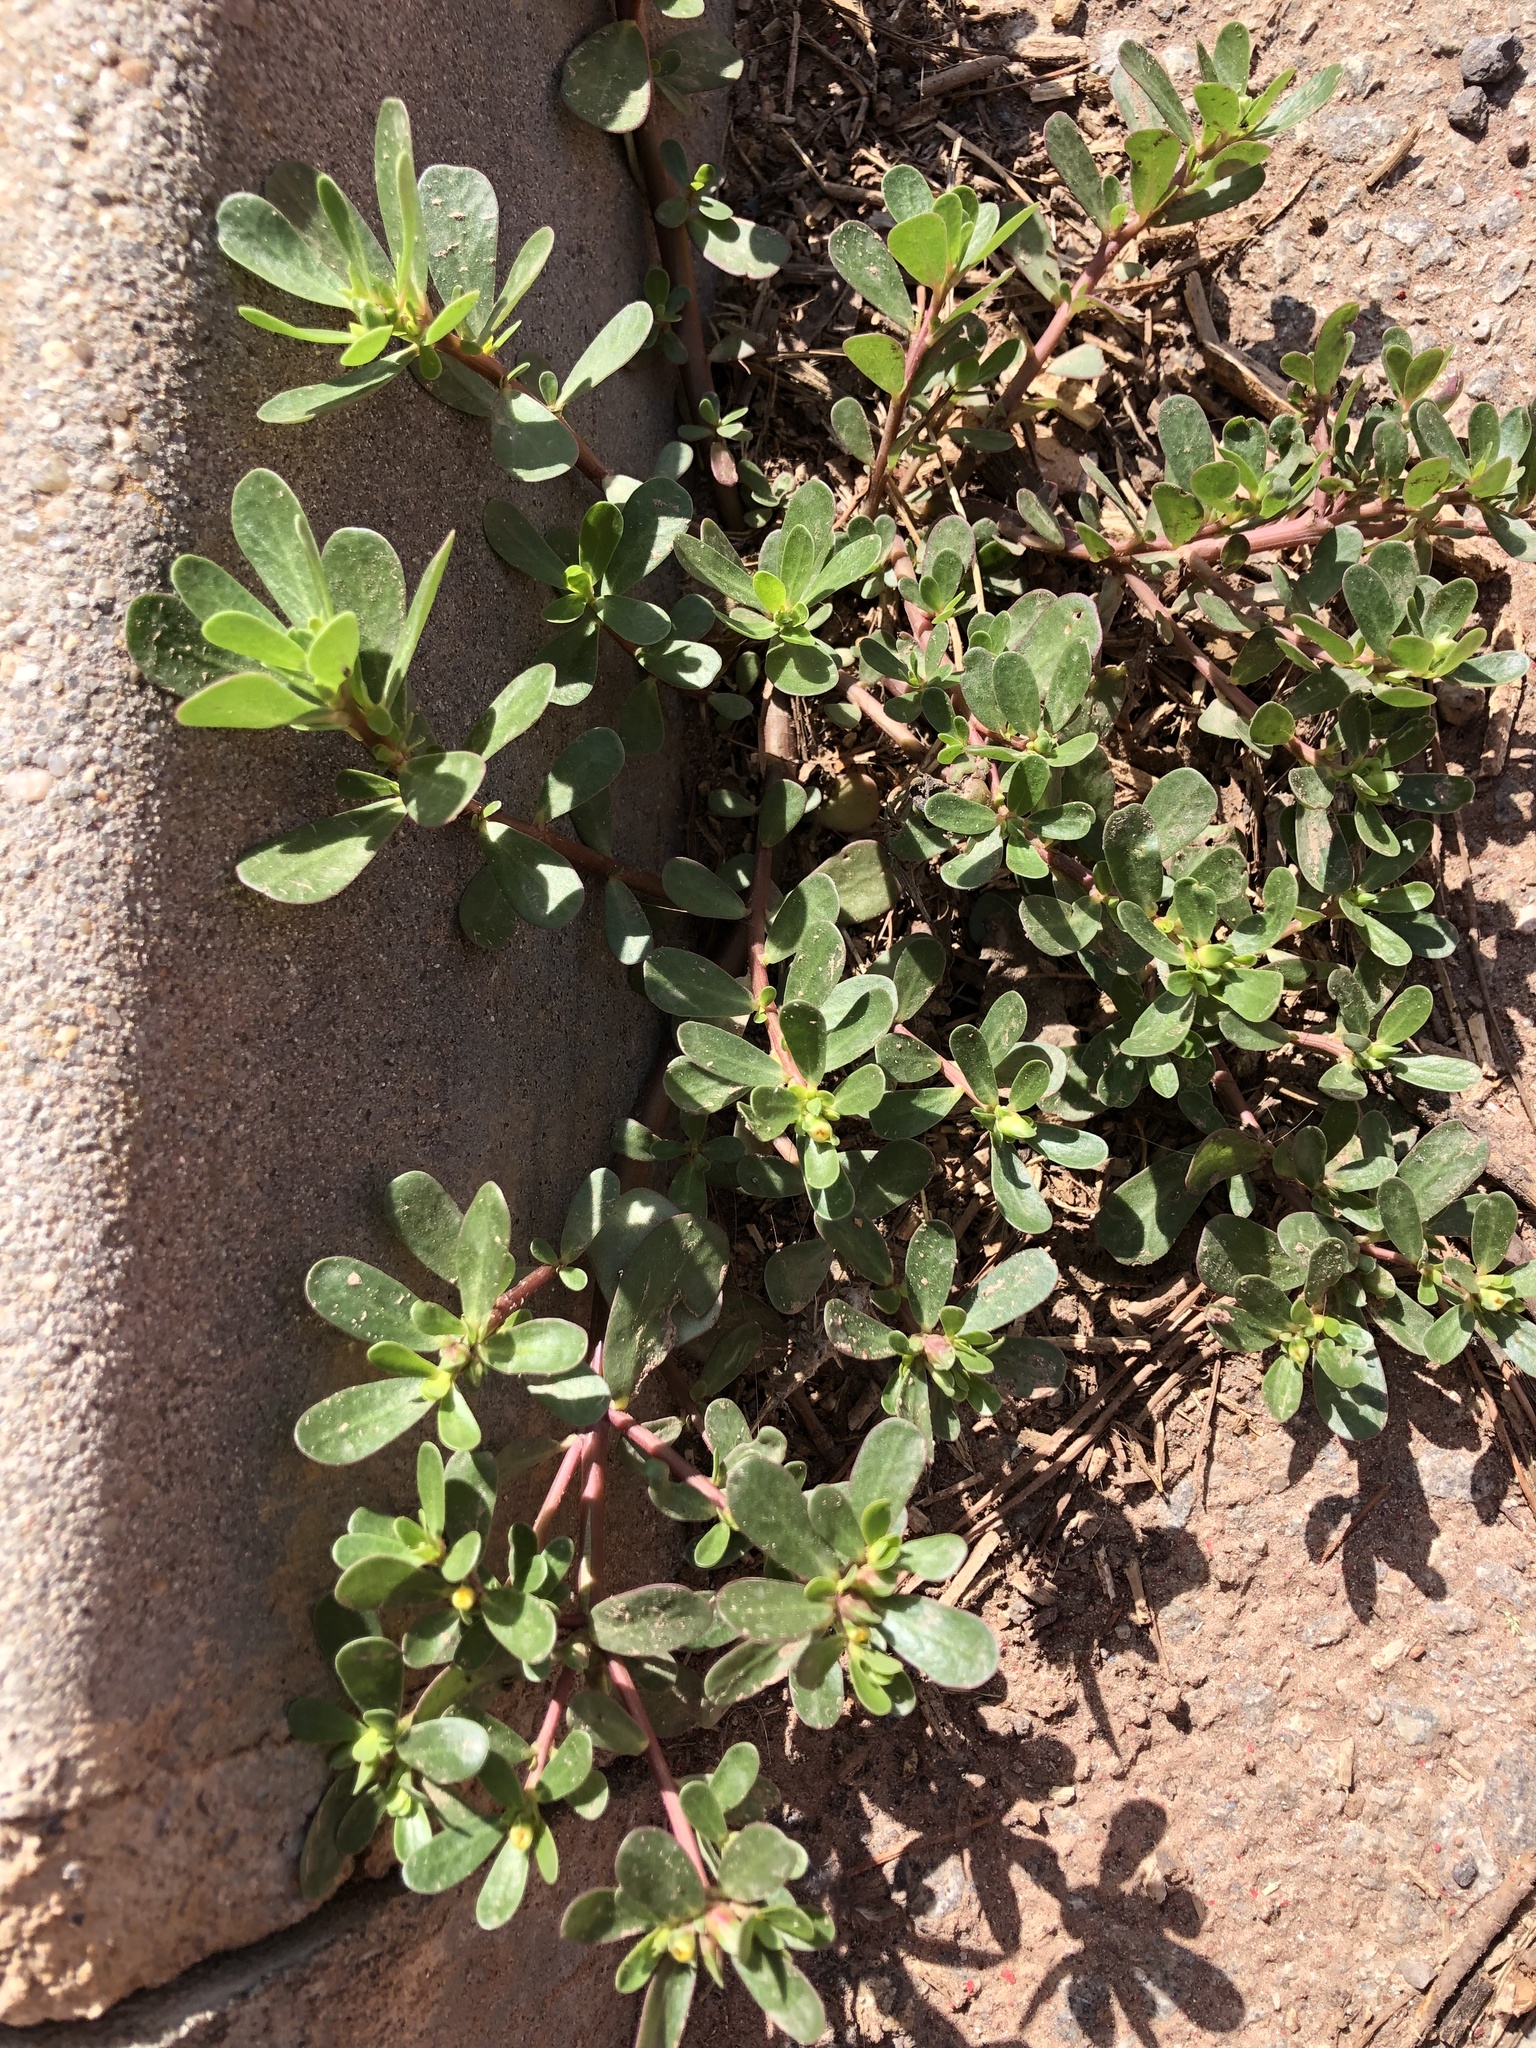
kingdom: Plantae
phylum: Tracheophyta
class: Magnoliopsida
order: Caryophyllales
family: Portulacaceae
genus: Portulaca
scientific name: Portulaca oleracea
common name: Common purslane
